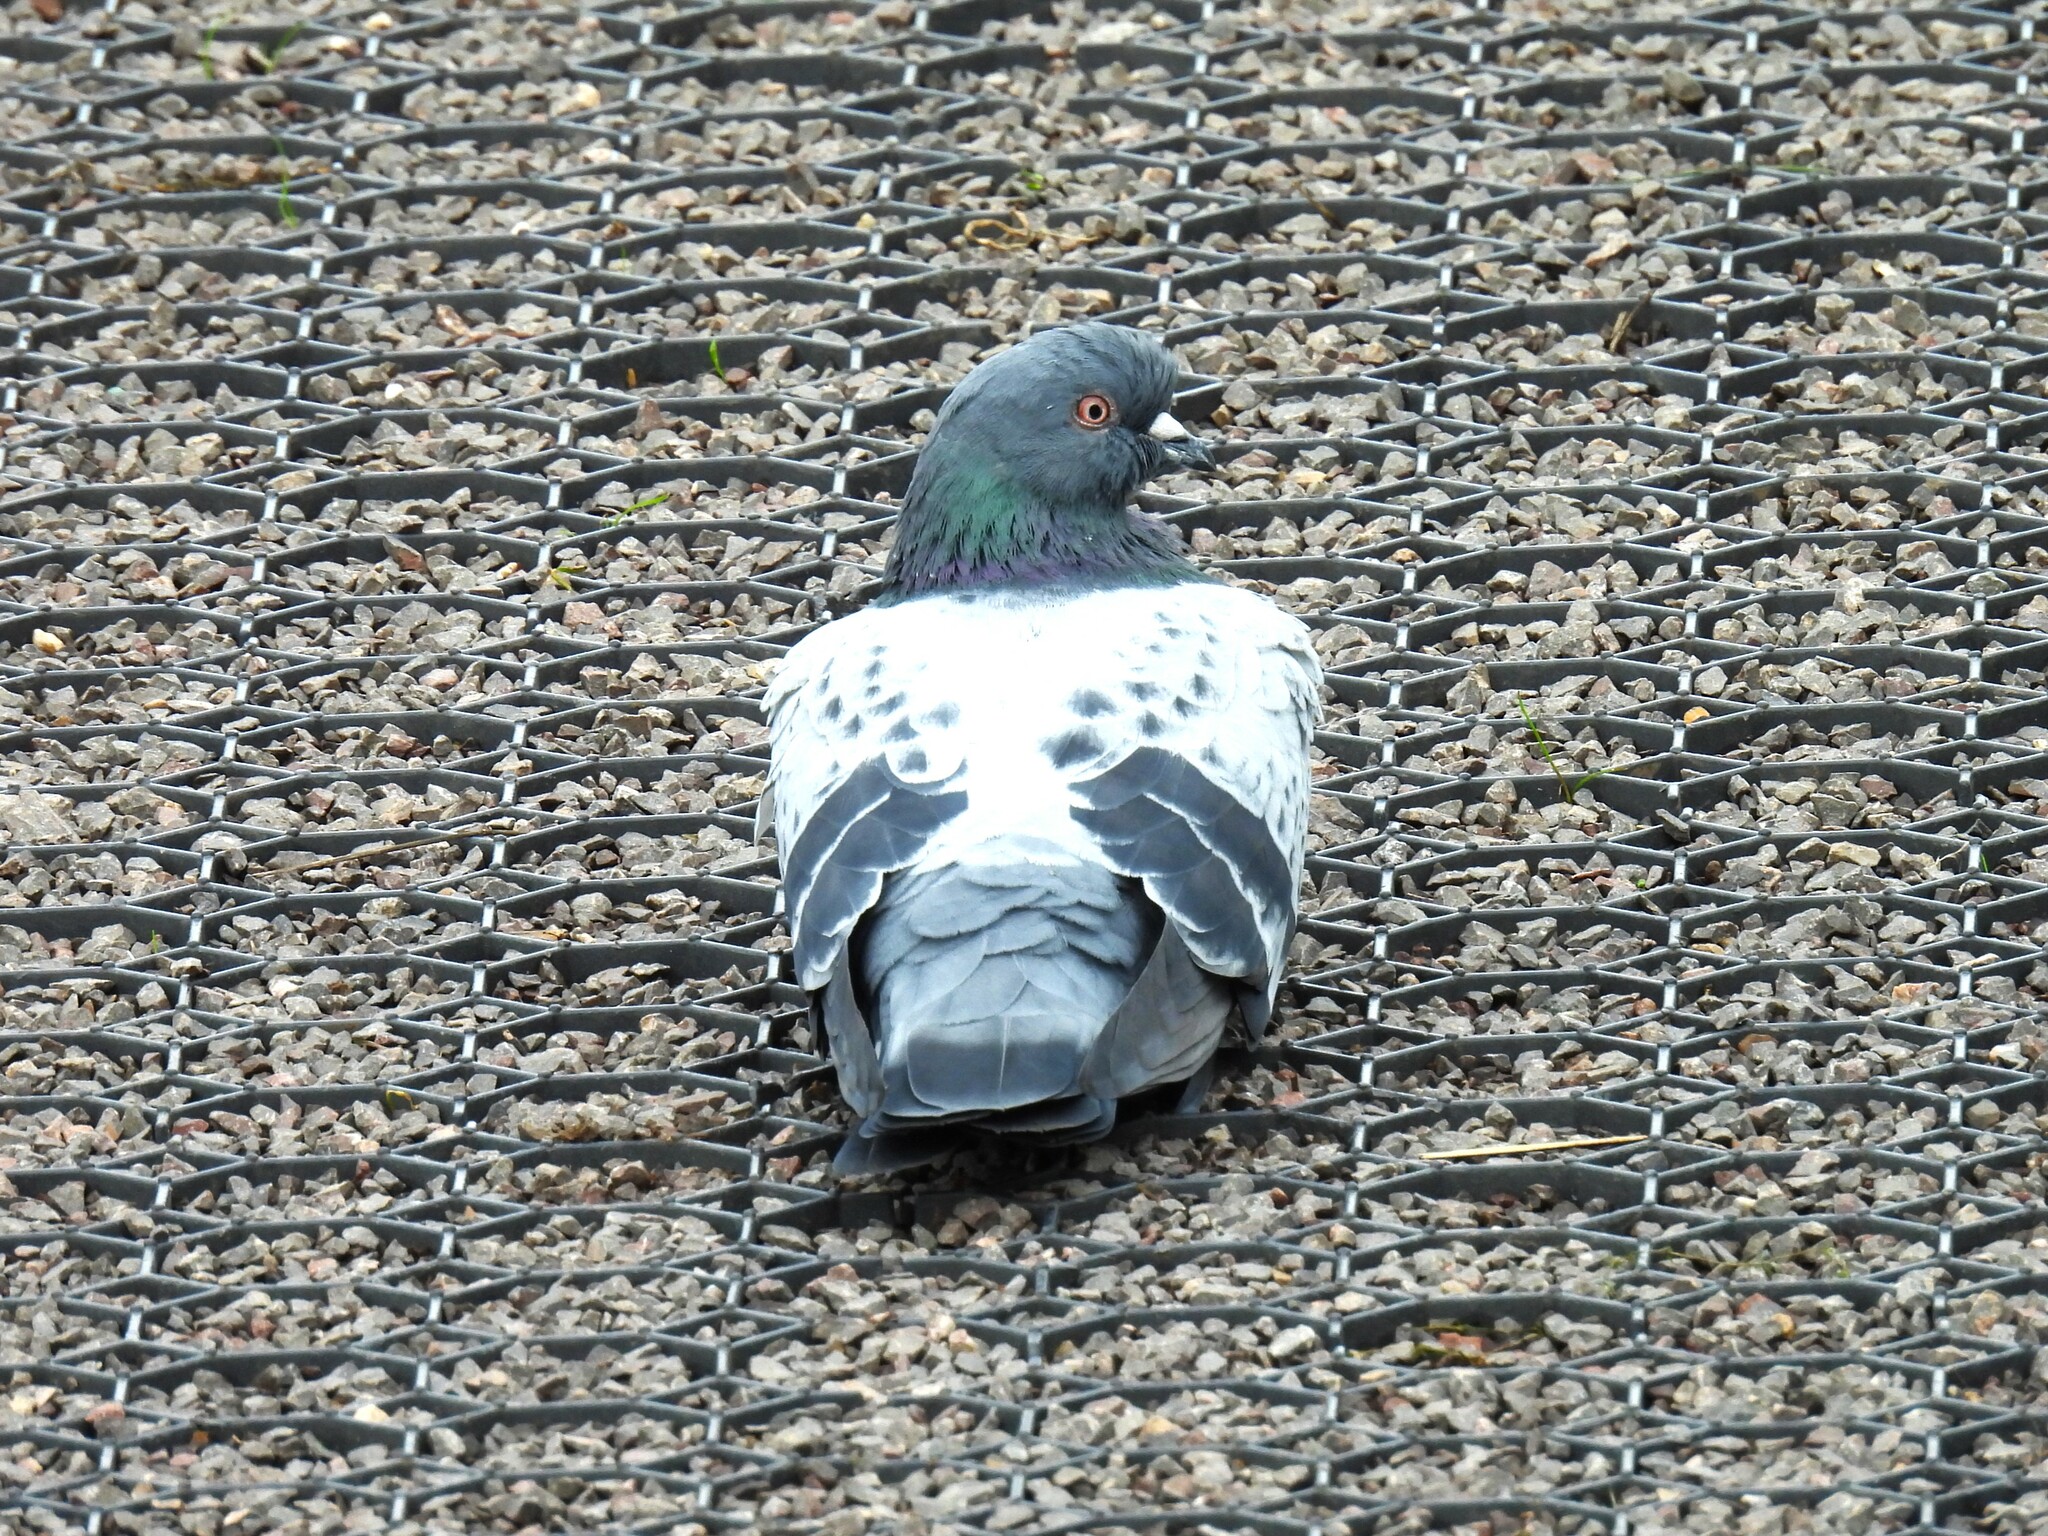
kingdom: Animalia
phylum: Chordata
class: Aves
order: Columbiformes
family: Columbidae
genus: Columba
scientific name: Columba livia
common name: Rock pigeon
